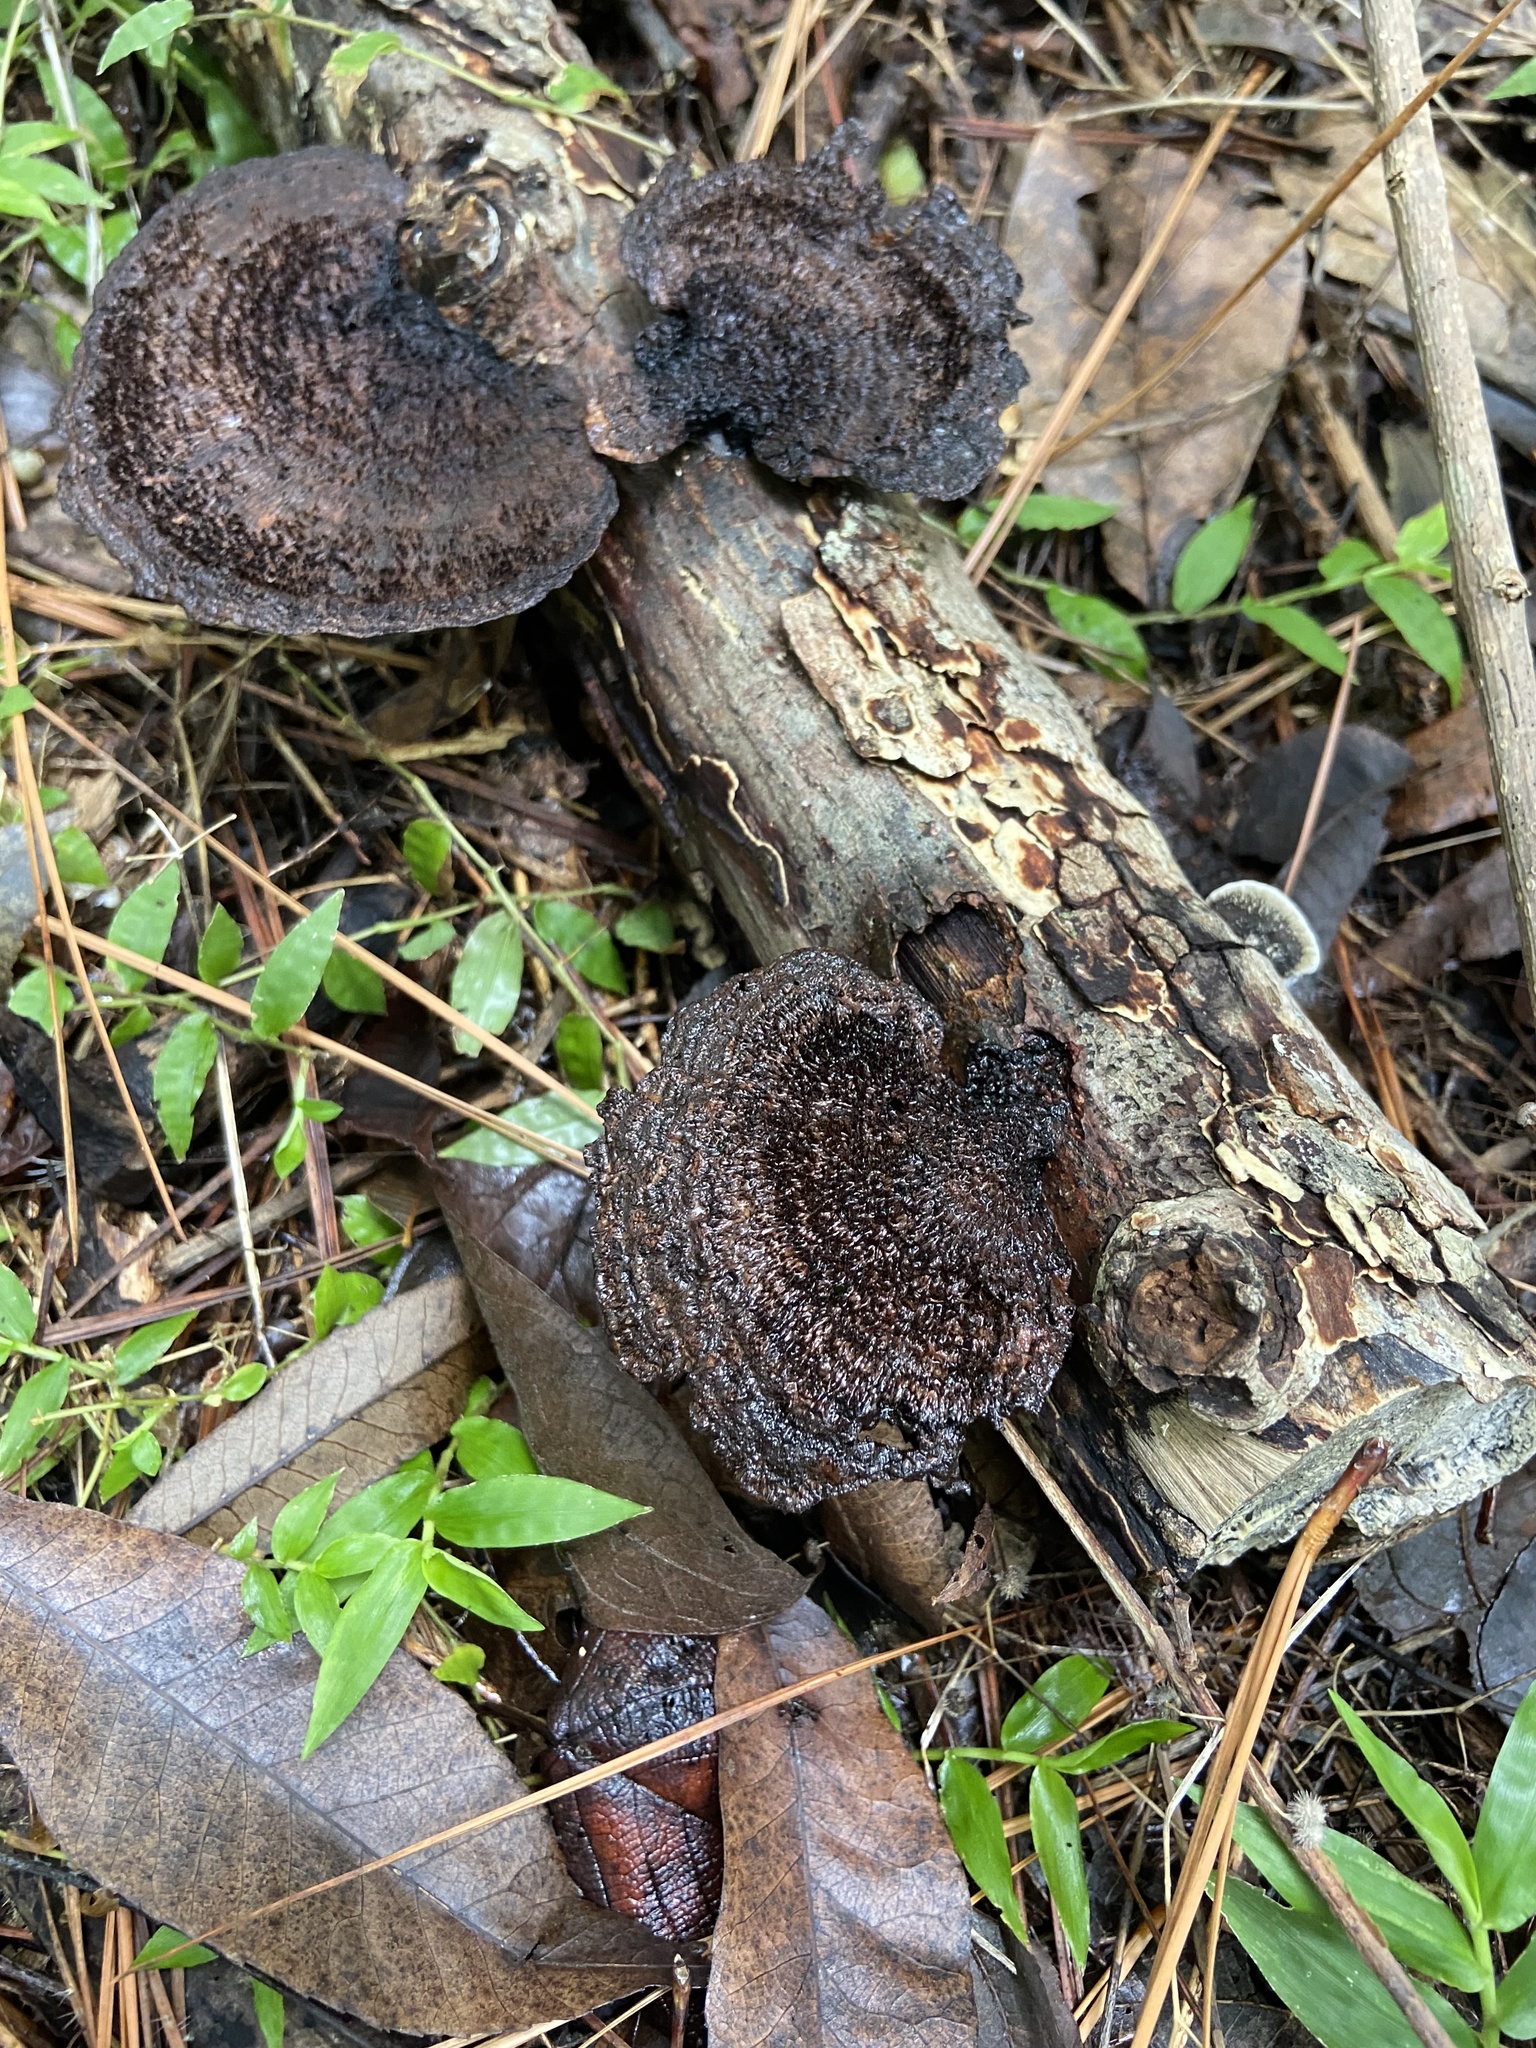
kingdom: Fungi
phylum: Basidiomycota
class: Agaricomycetes
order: Polyporales
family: Cerrenaceae
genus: Cerrena
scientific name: Cerrena hydnoides
